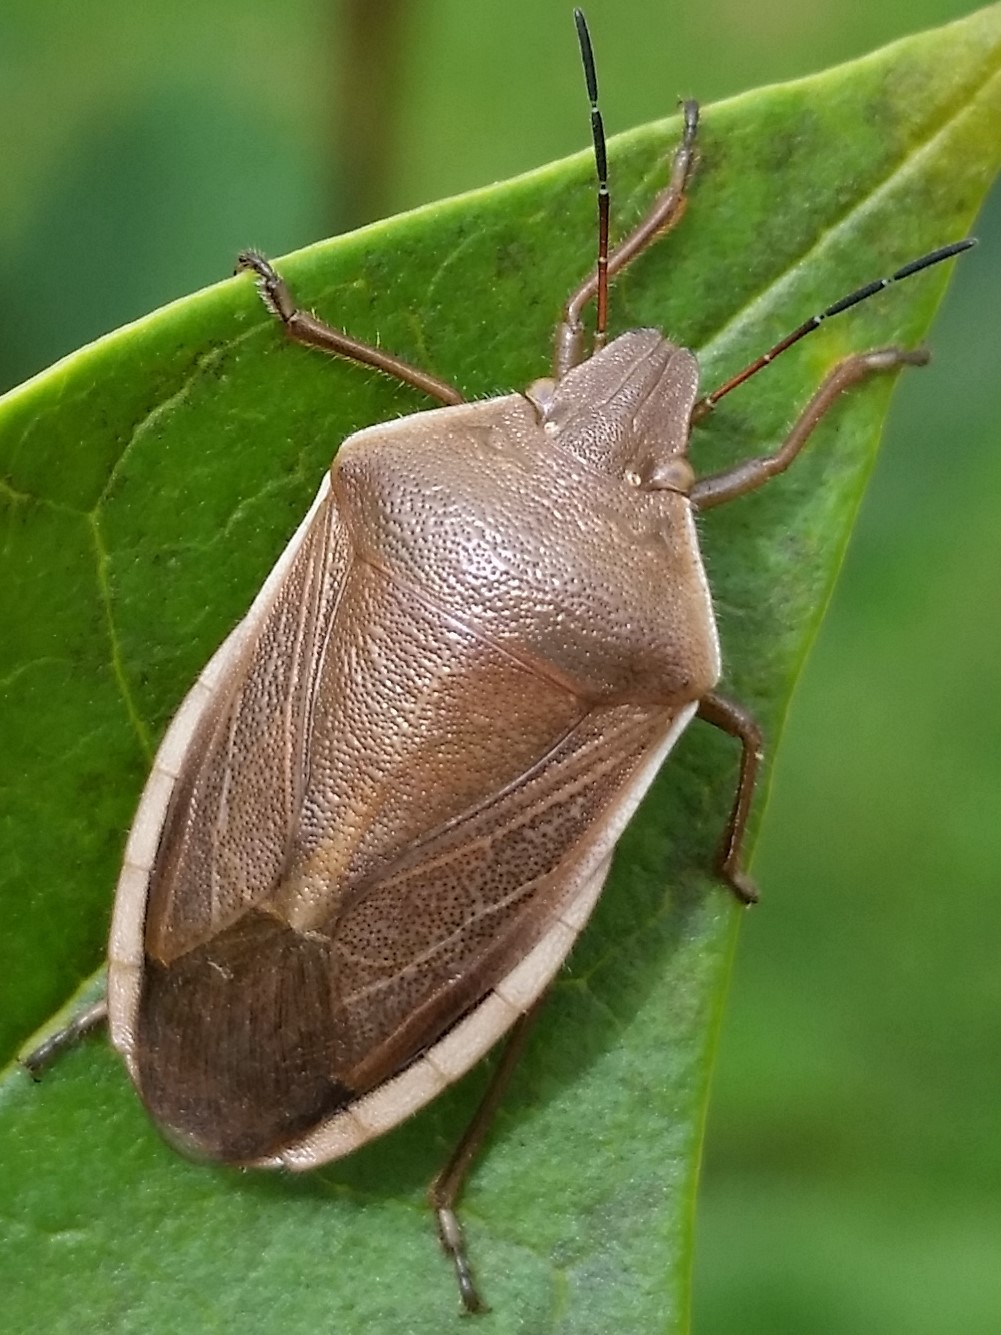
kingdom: Animalia
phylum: Arthropoda
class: Insecta
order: Hemiptera
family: Pentatomidae
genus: Chlorochroa
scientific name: Chlorochroa senilis
